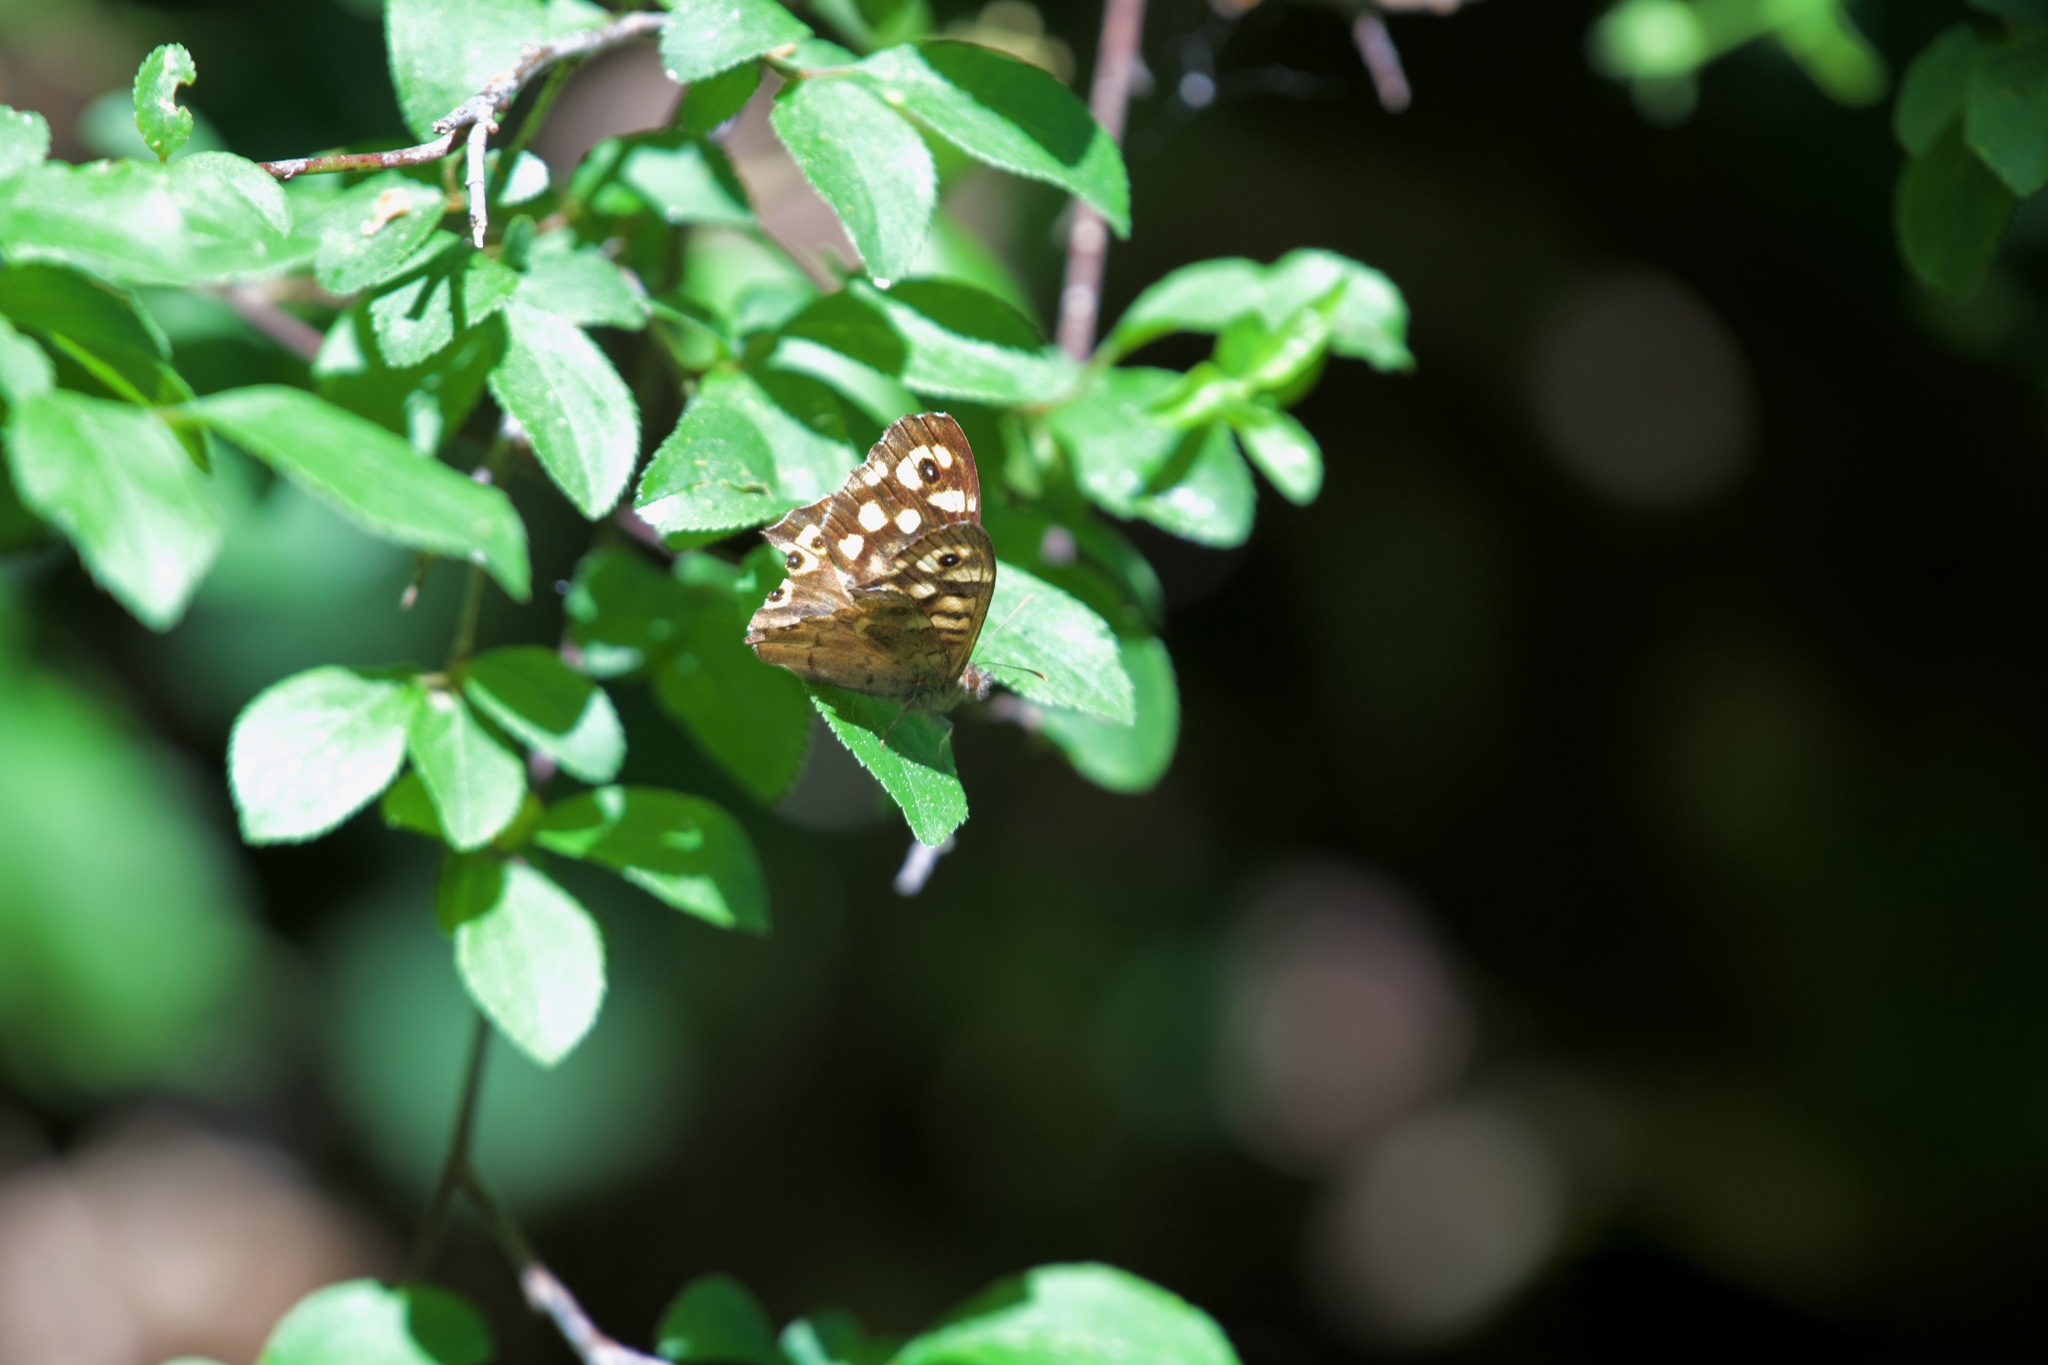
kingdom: Animalia
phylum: Arthropoda
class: Insecta
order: Lepidoptera
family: Nymphalidae
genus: Pararge
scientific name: Pararge aegeria
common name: Speckled wood
